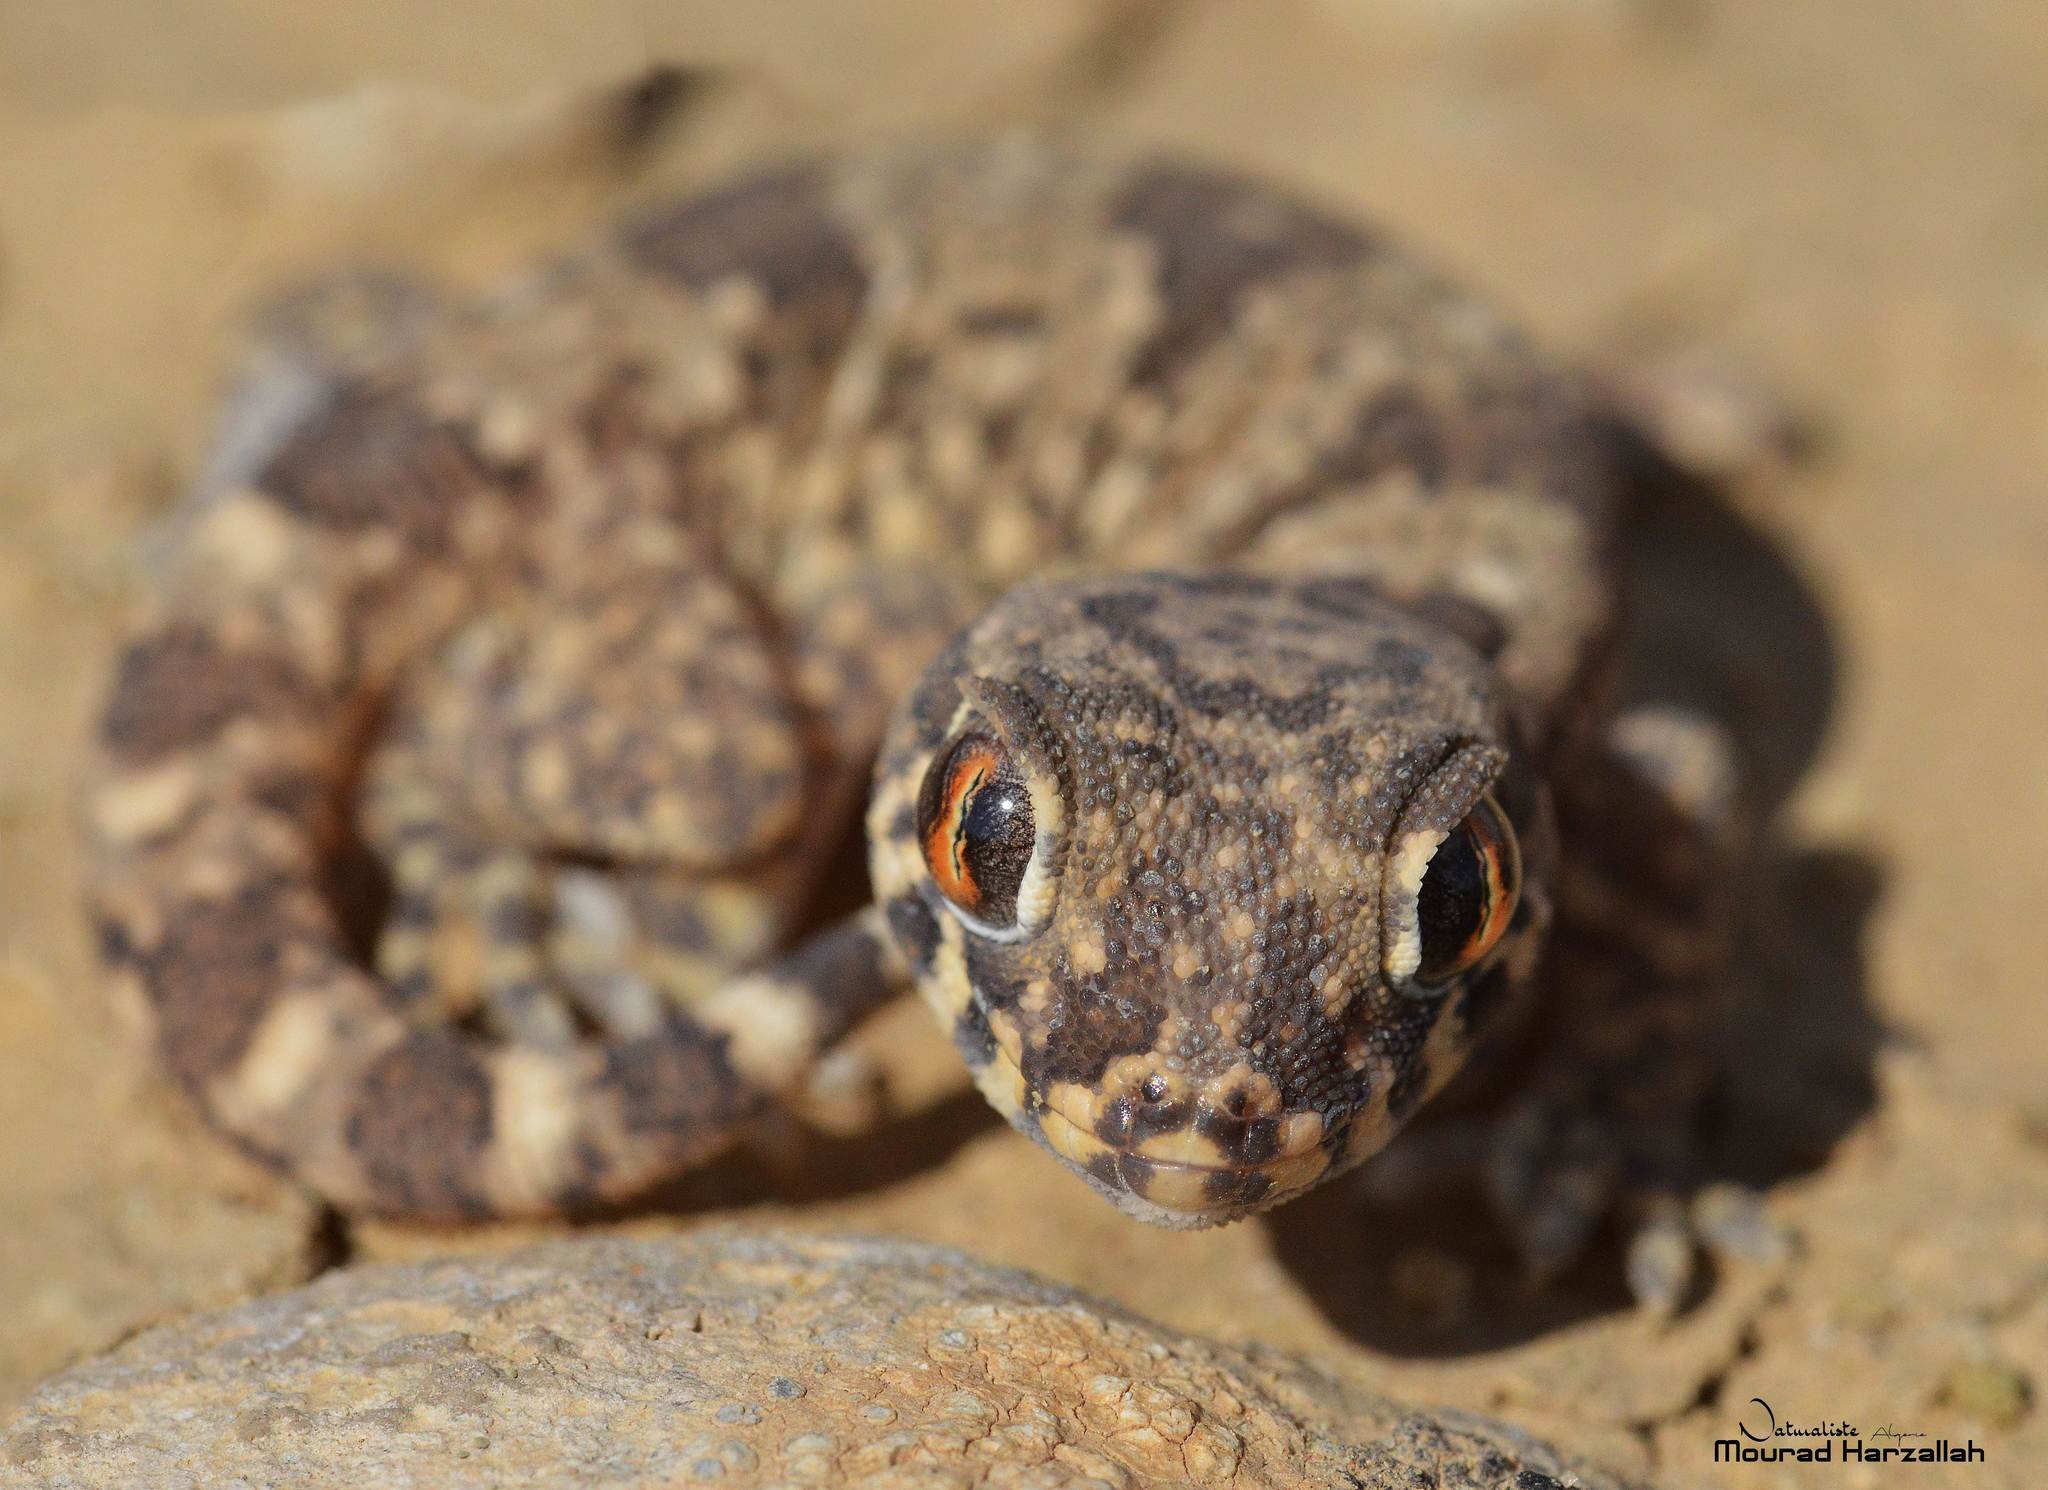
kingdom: Animalia
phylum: Chordata
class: Squamata
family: Gekkonidae
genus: Stenodactylus
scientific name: Stenodactylus mauritanicus
